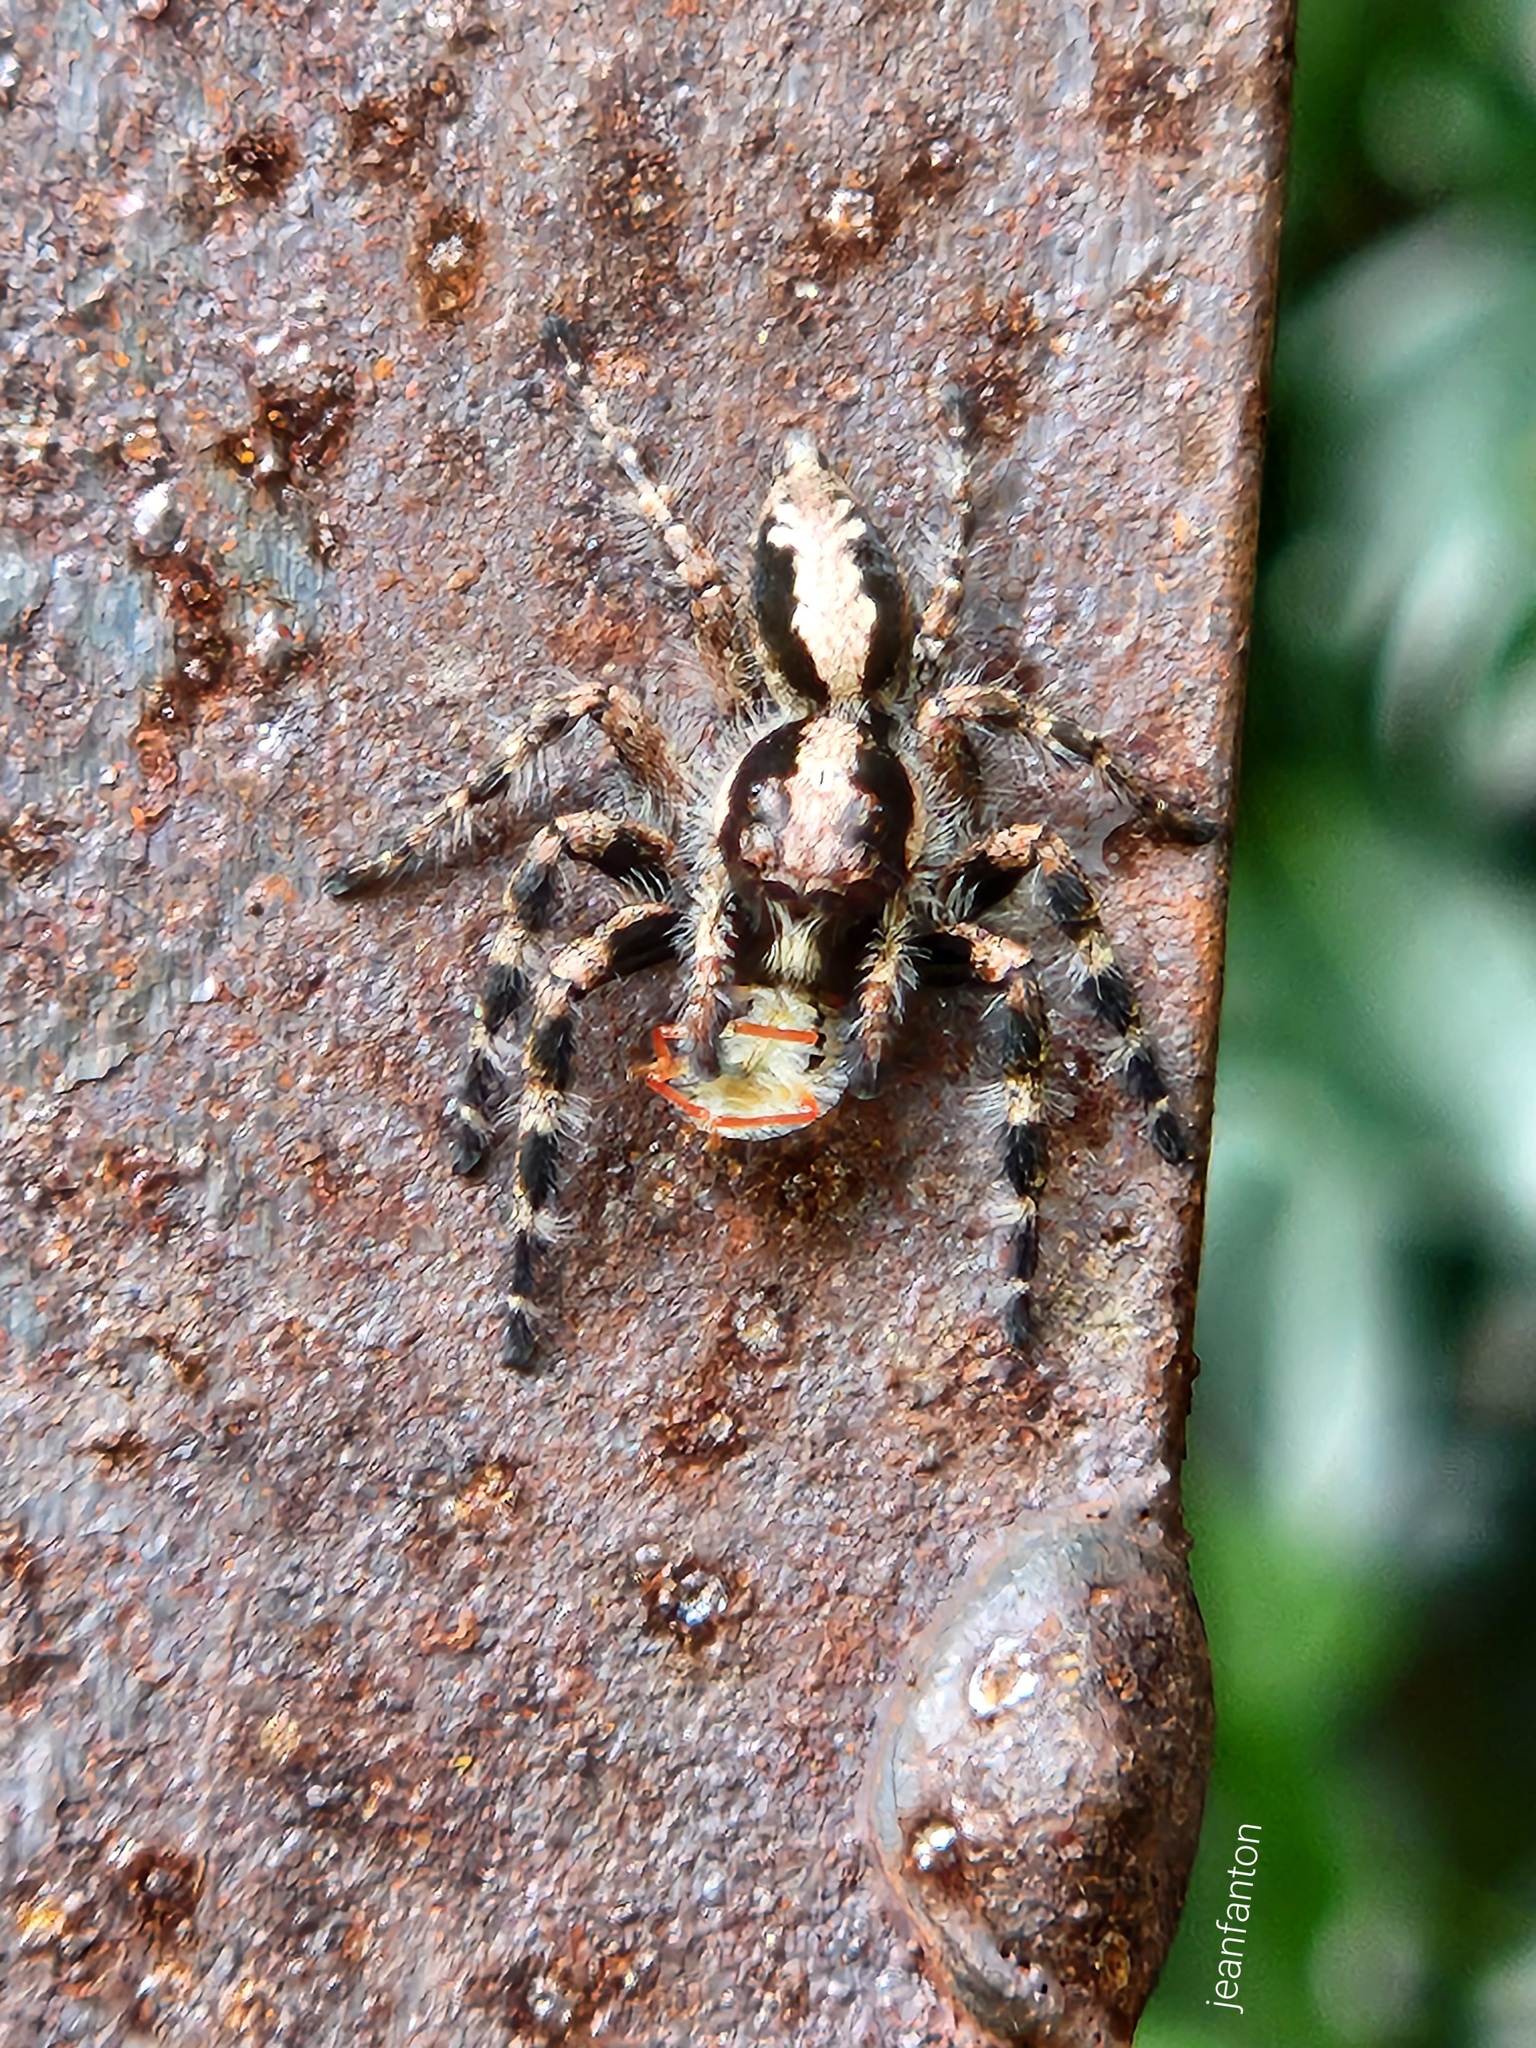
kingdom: Animalia
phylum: Arthropoda
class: Arachnida
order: Araneae
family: Salticidae
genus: Megafreya
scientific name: Megafreya sutrix
